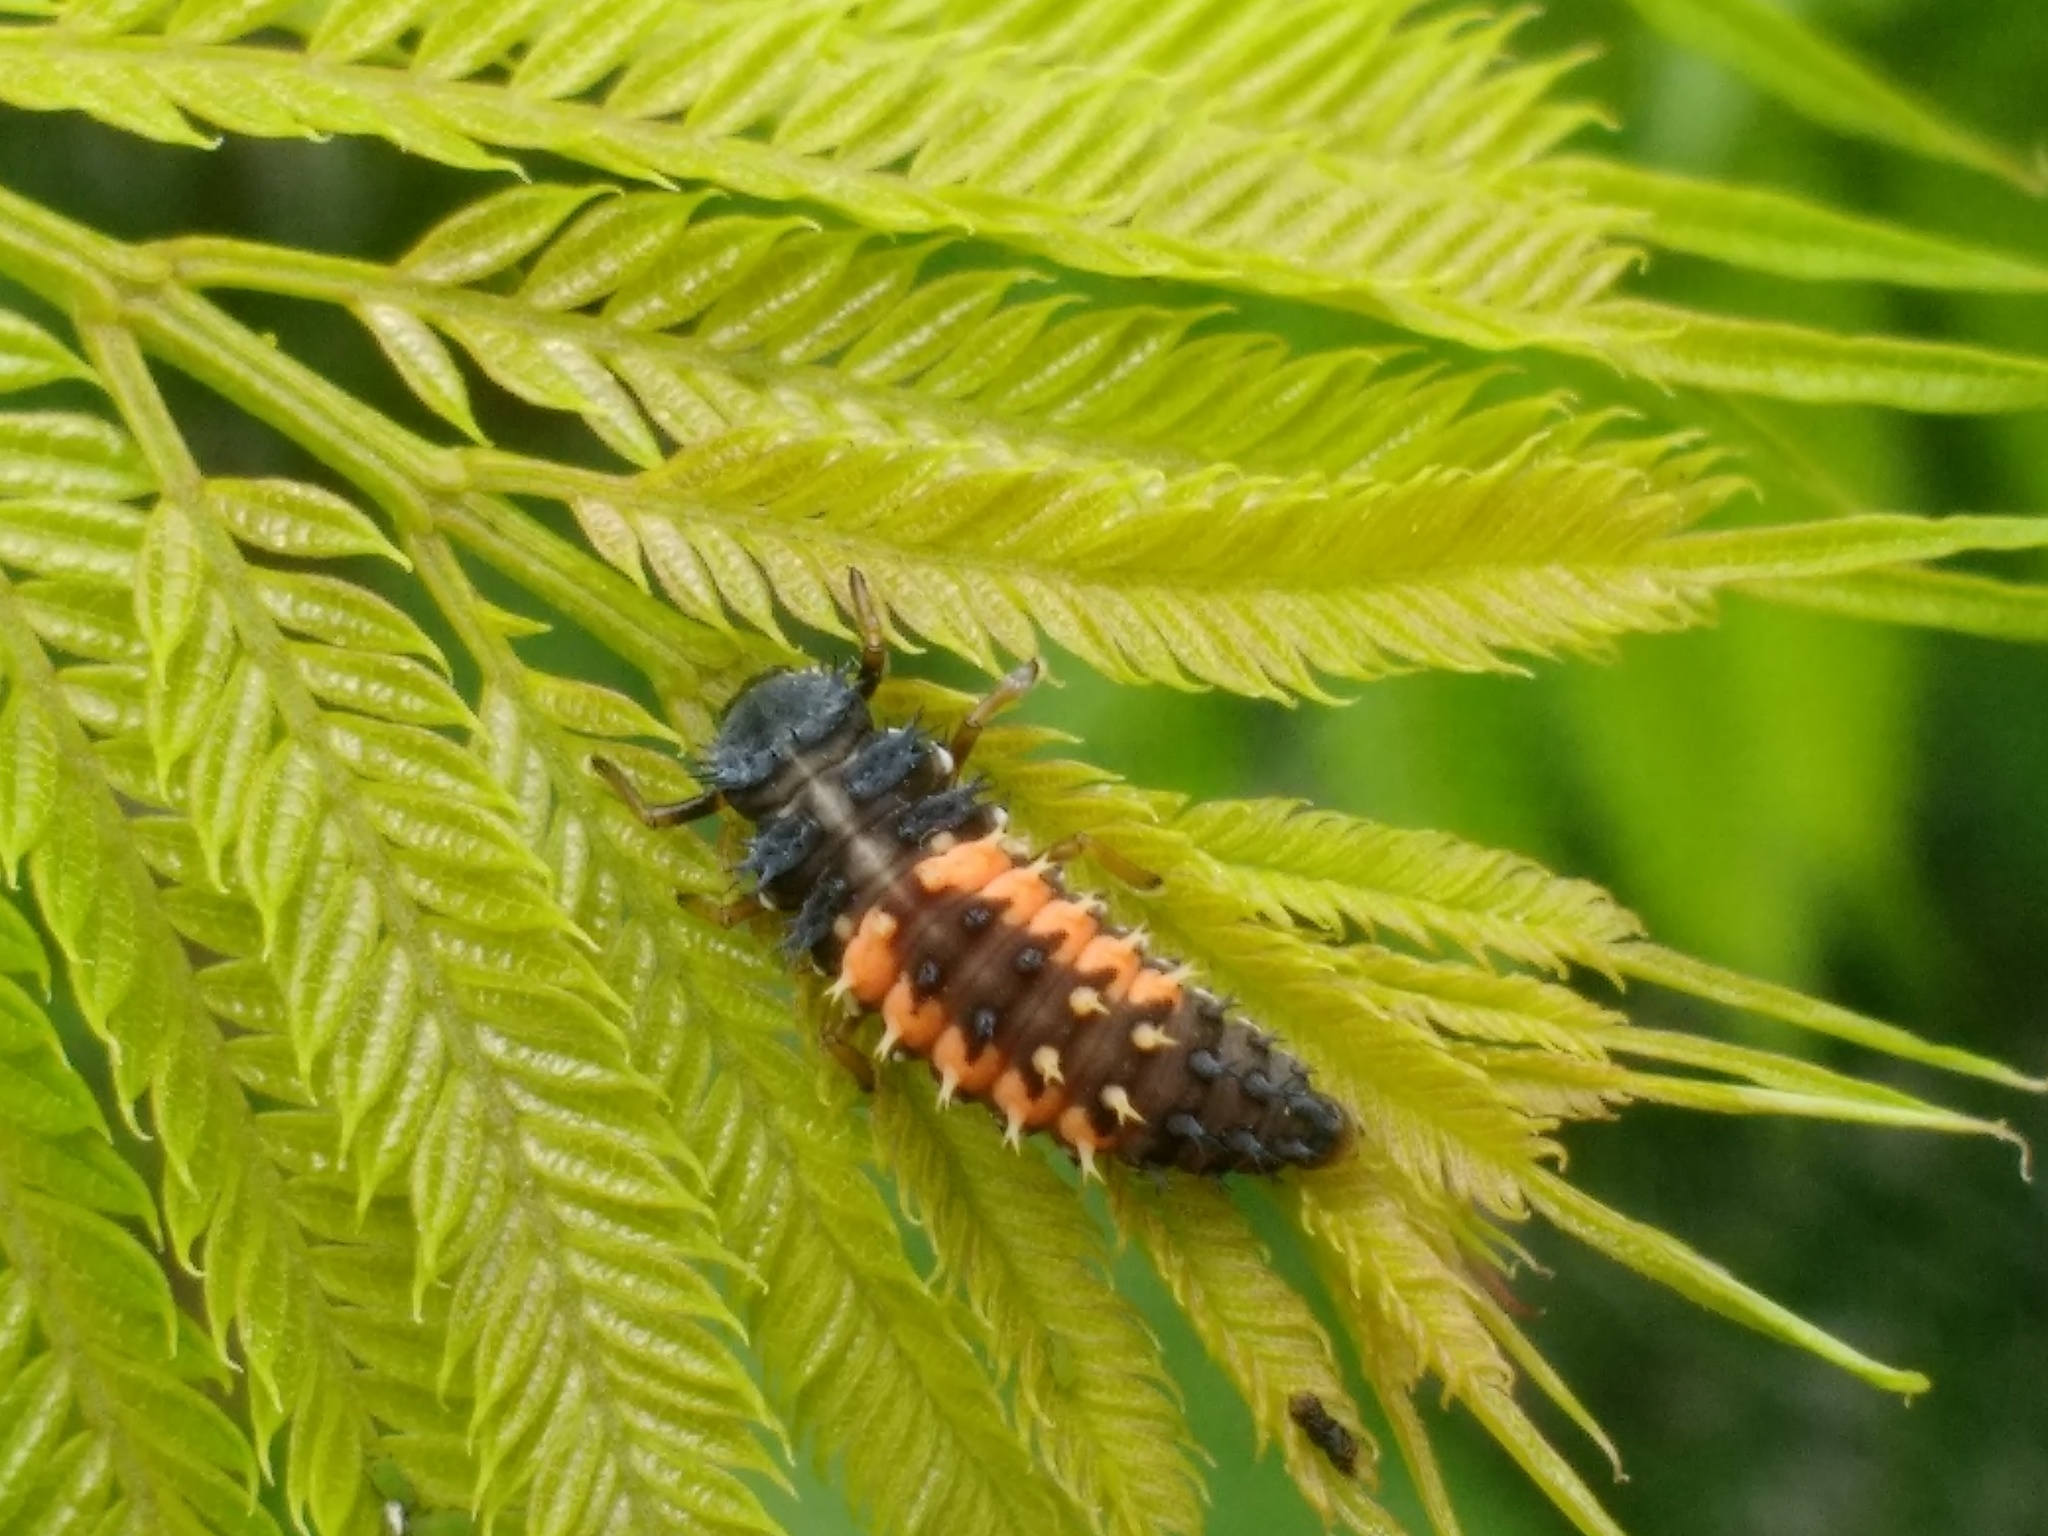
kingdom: Animalia
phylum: Arthropoda
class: Insecta
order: Coleoptera
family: Coccinellidae
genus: Harmonia
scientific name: Harmonia axyridis
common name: Harlequin ladybird
